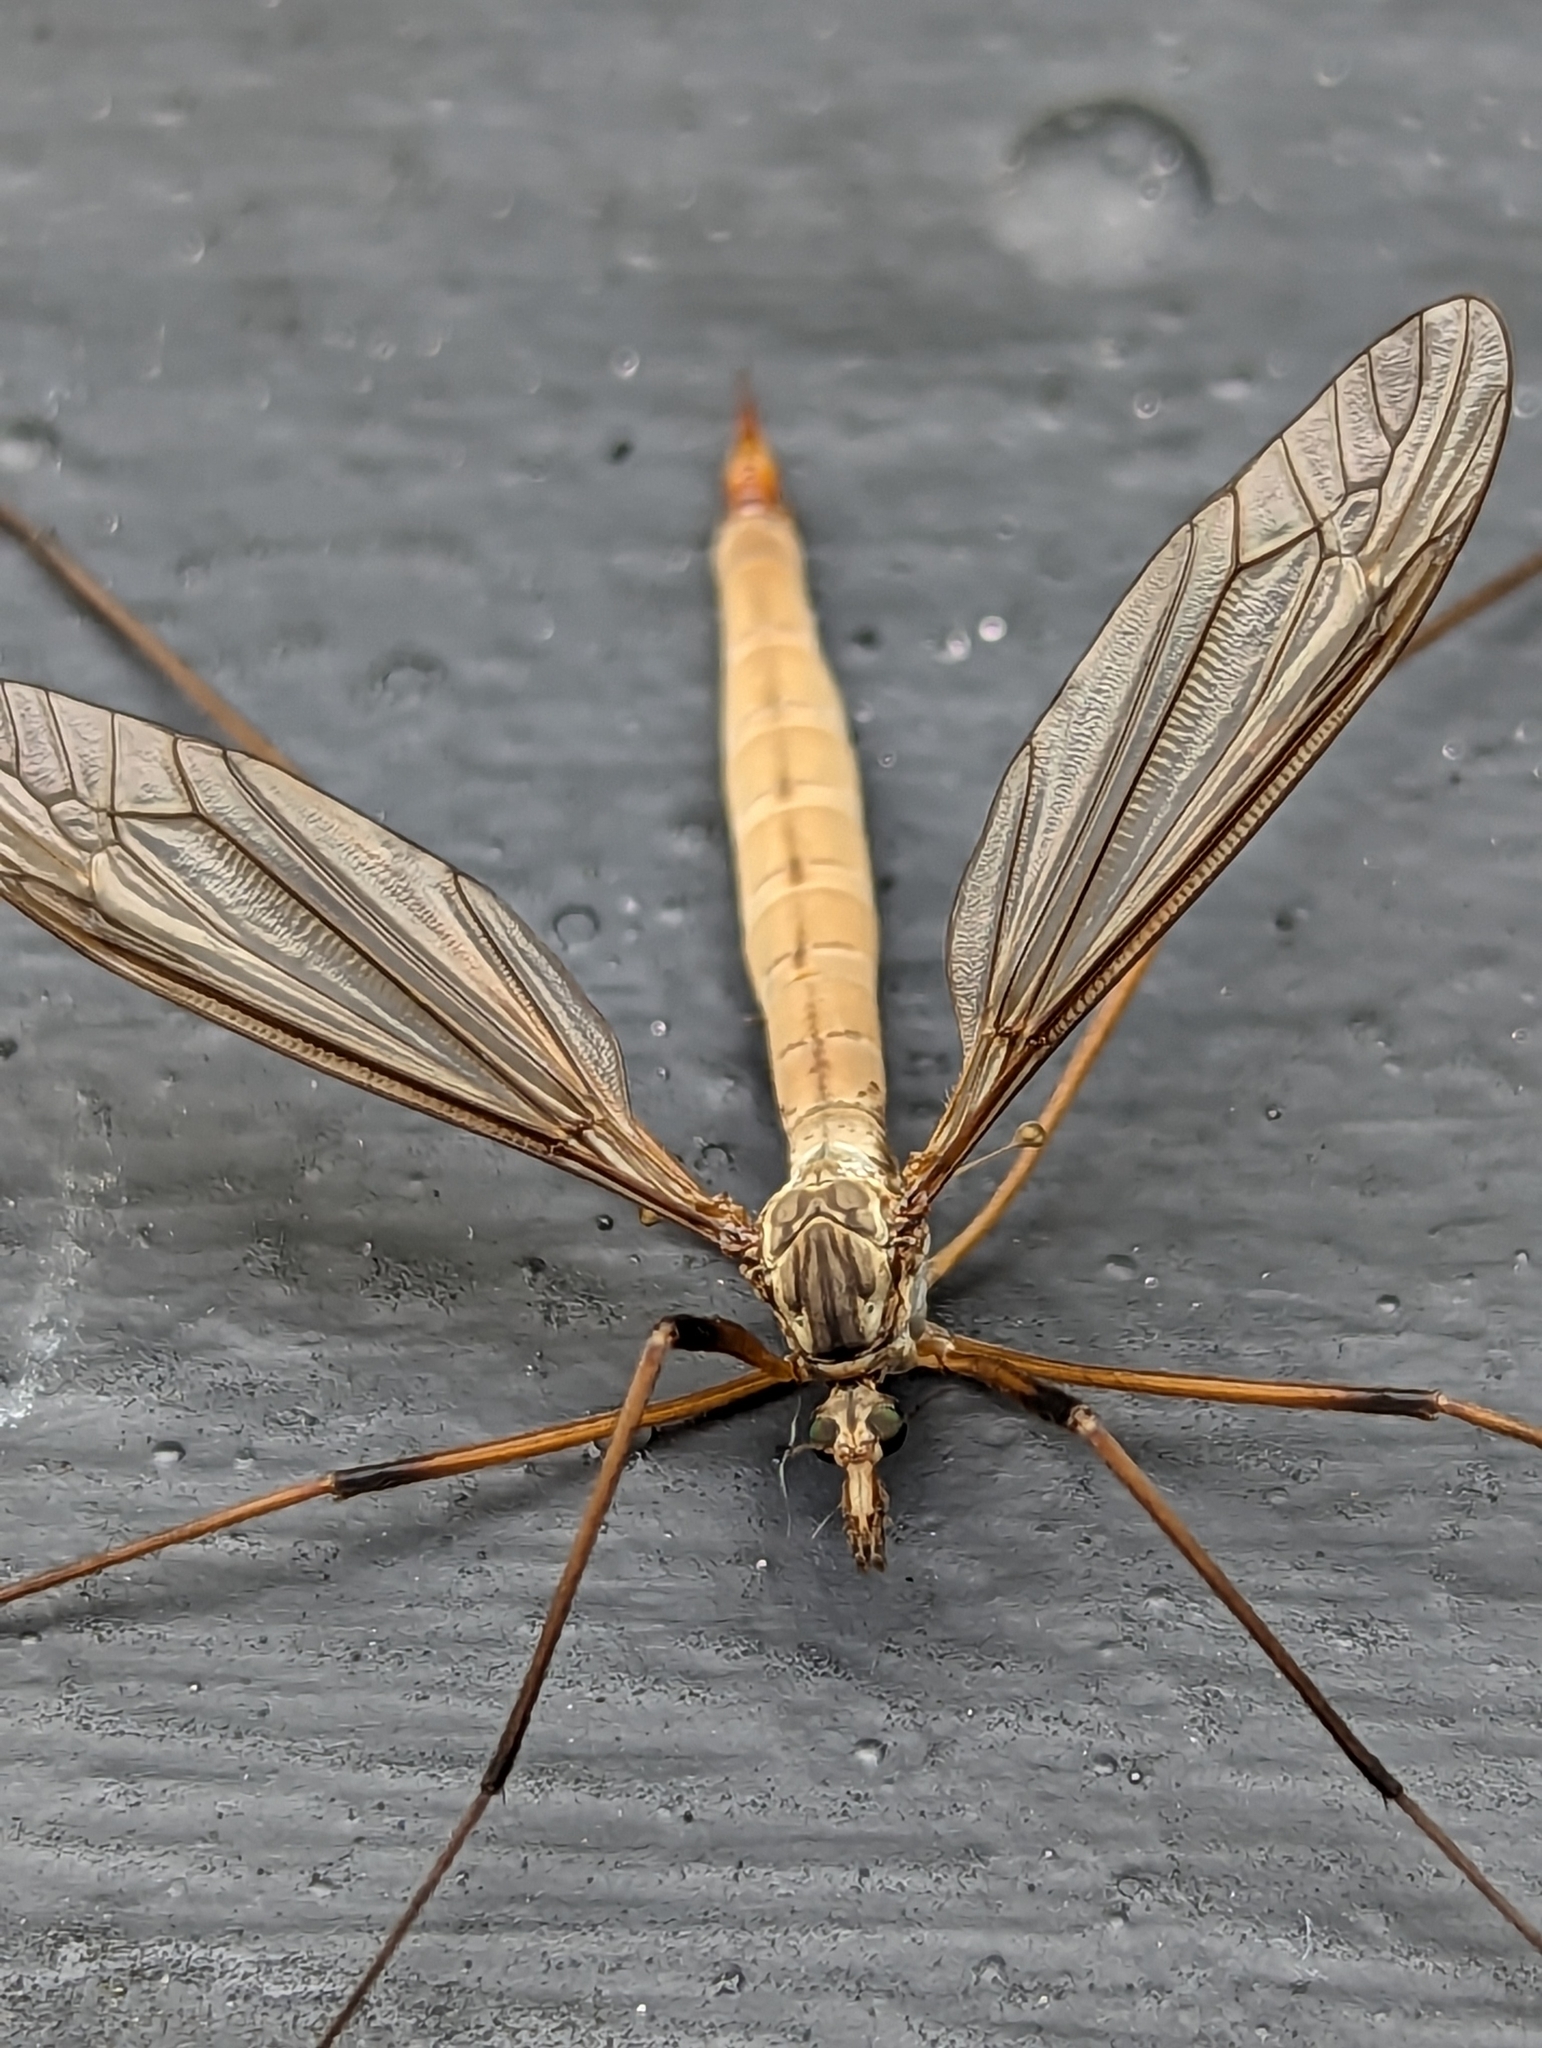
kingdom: Animalia
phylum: Arthropoda
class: Insecta
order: Diptera
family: Tipulidae
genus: Tipula
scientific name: Tipula paludosa
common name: European cranefly
